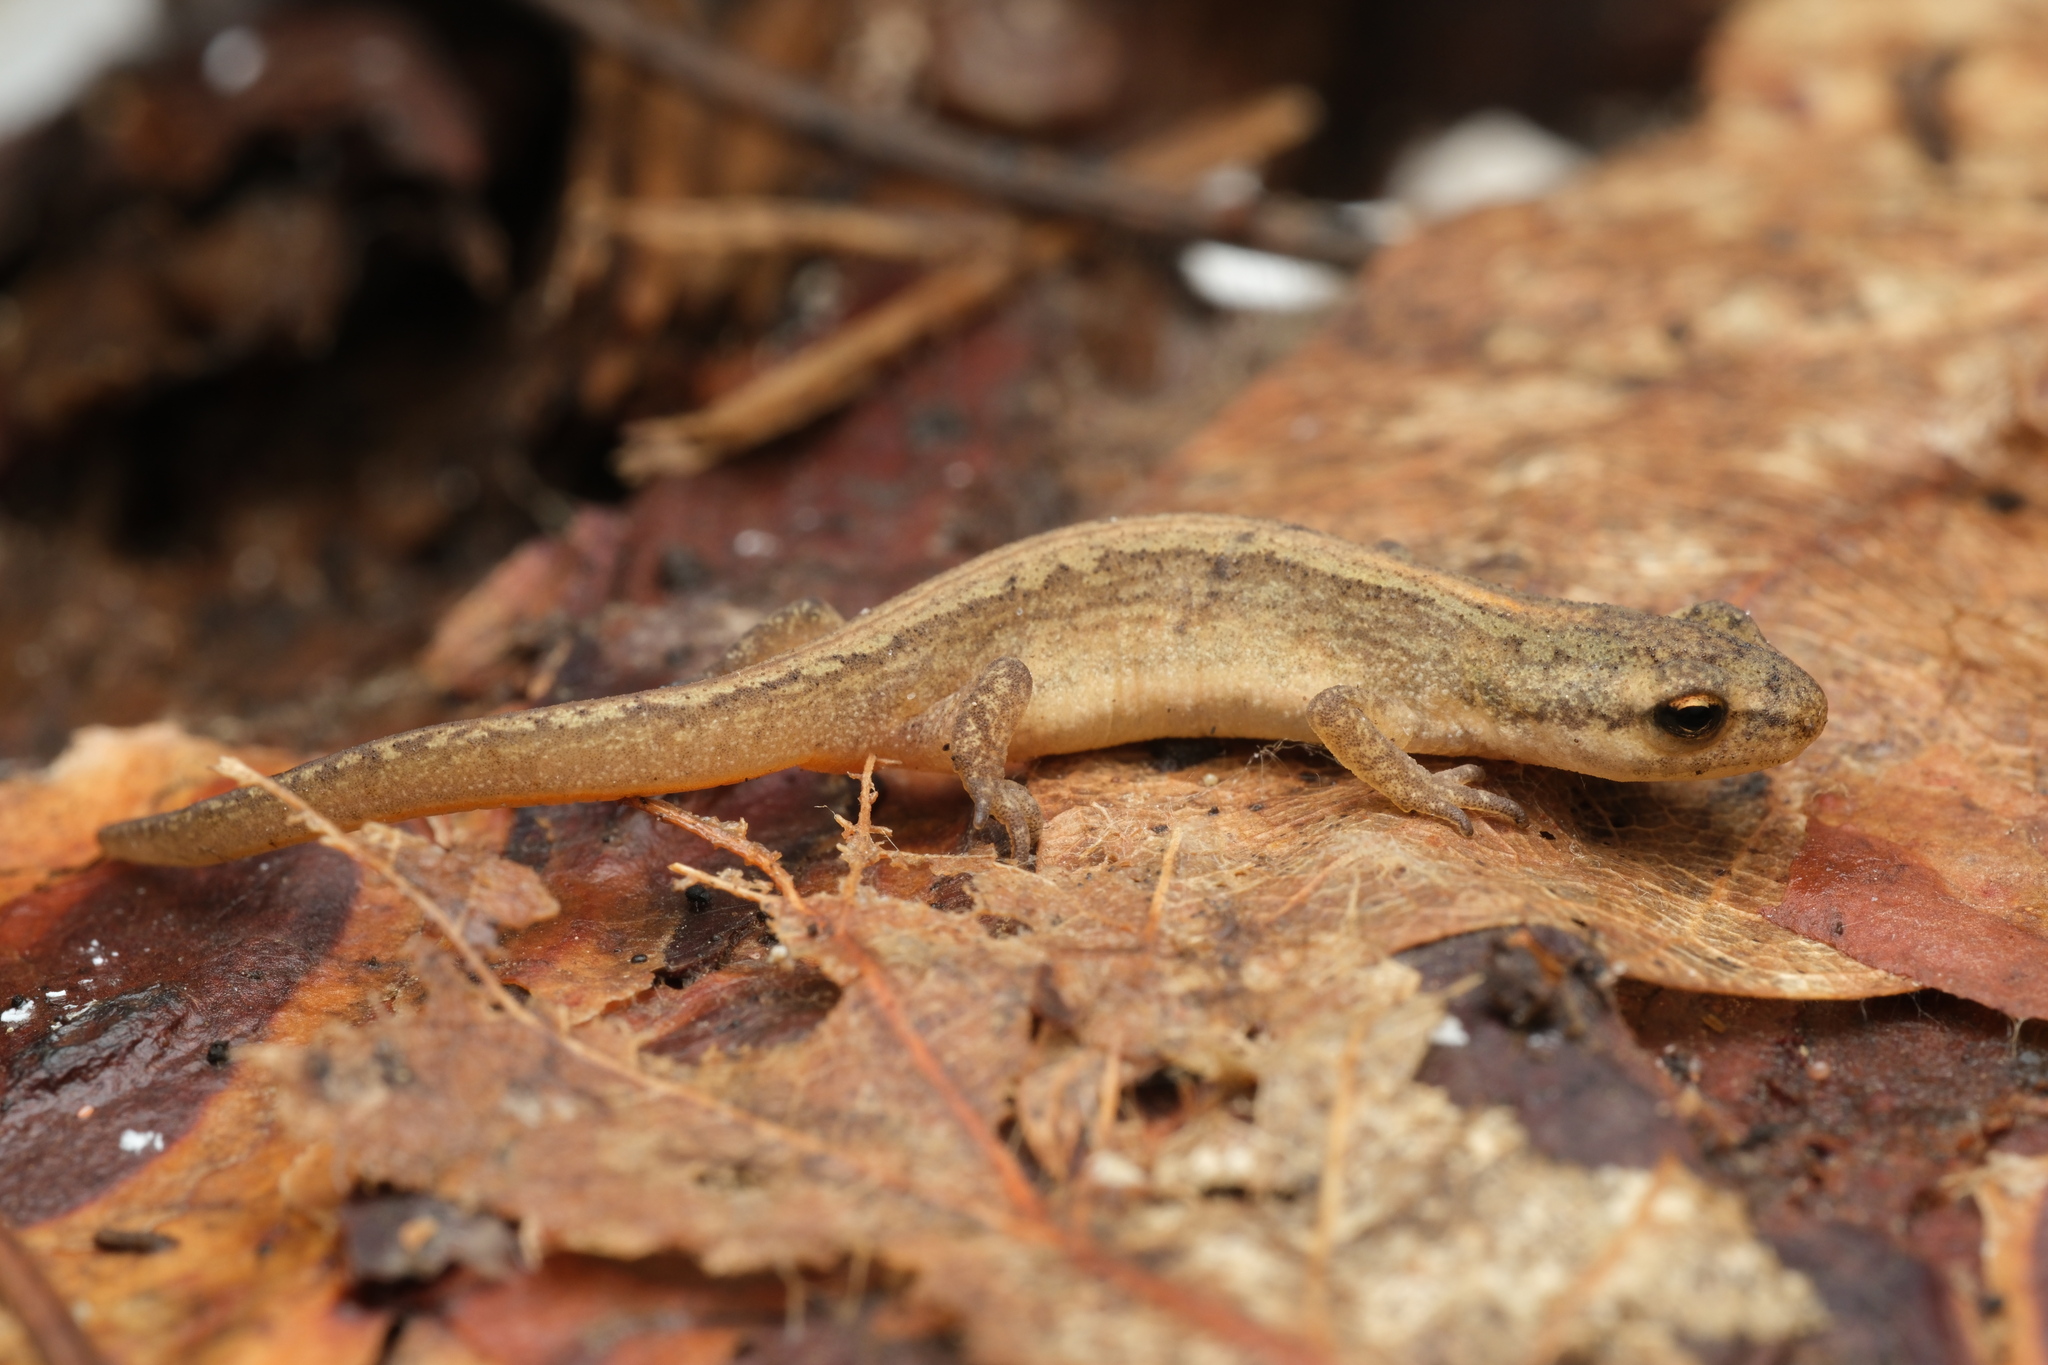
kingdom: Animalia
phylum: Chordata
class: Amphibia
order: Caudata
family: Salamandridae
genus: Lissotriton
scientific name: Lissotriton vulgaris
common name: Smooth newt
